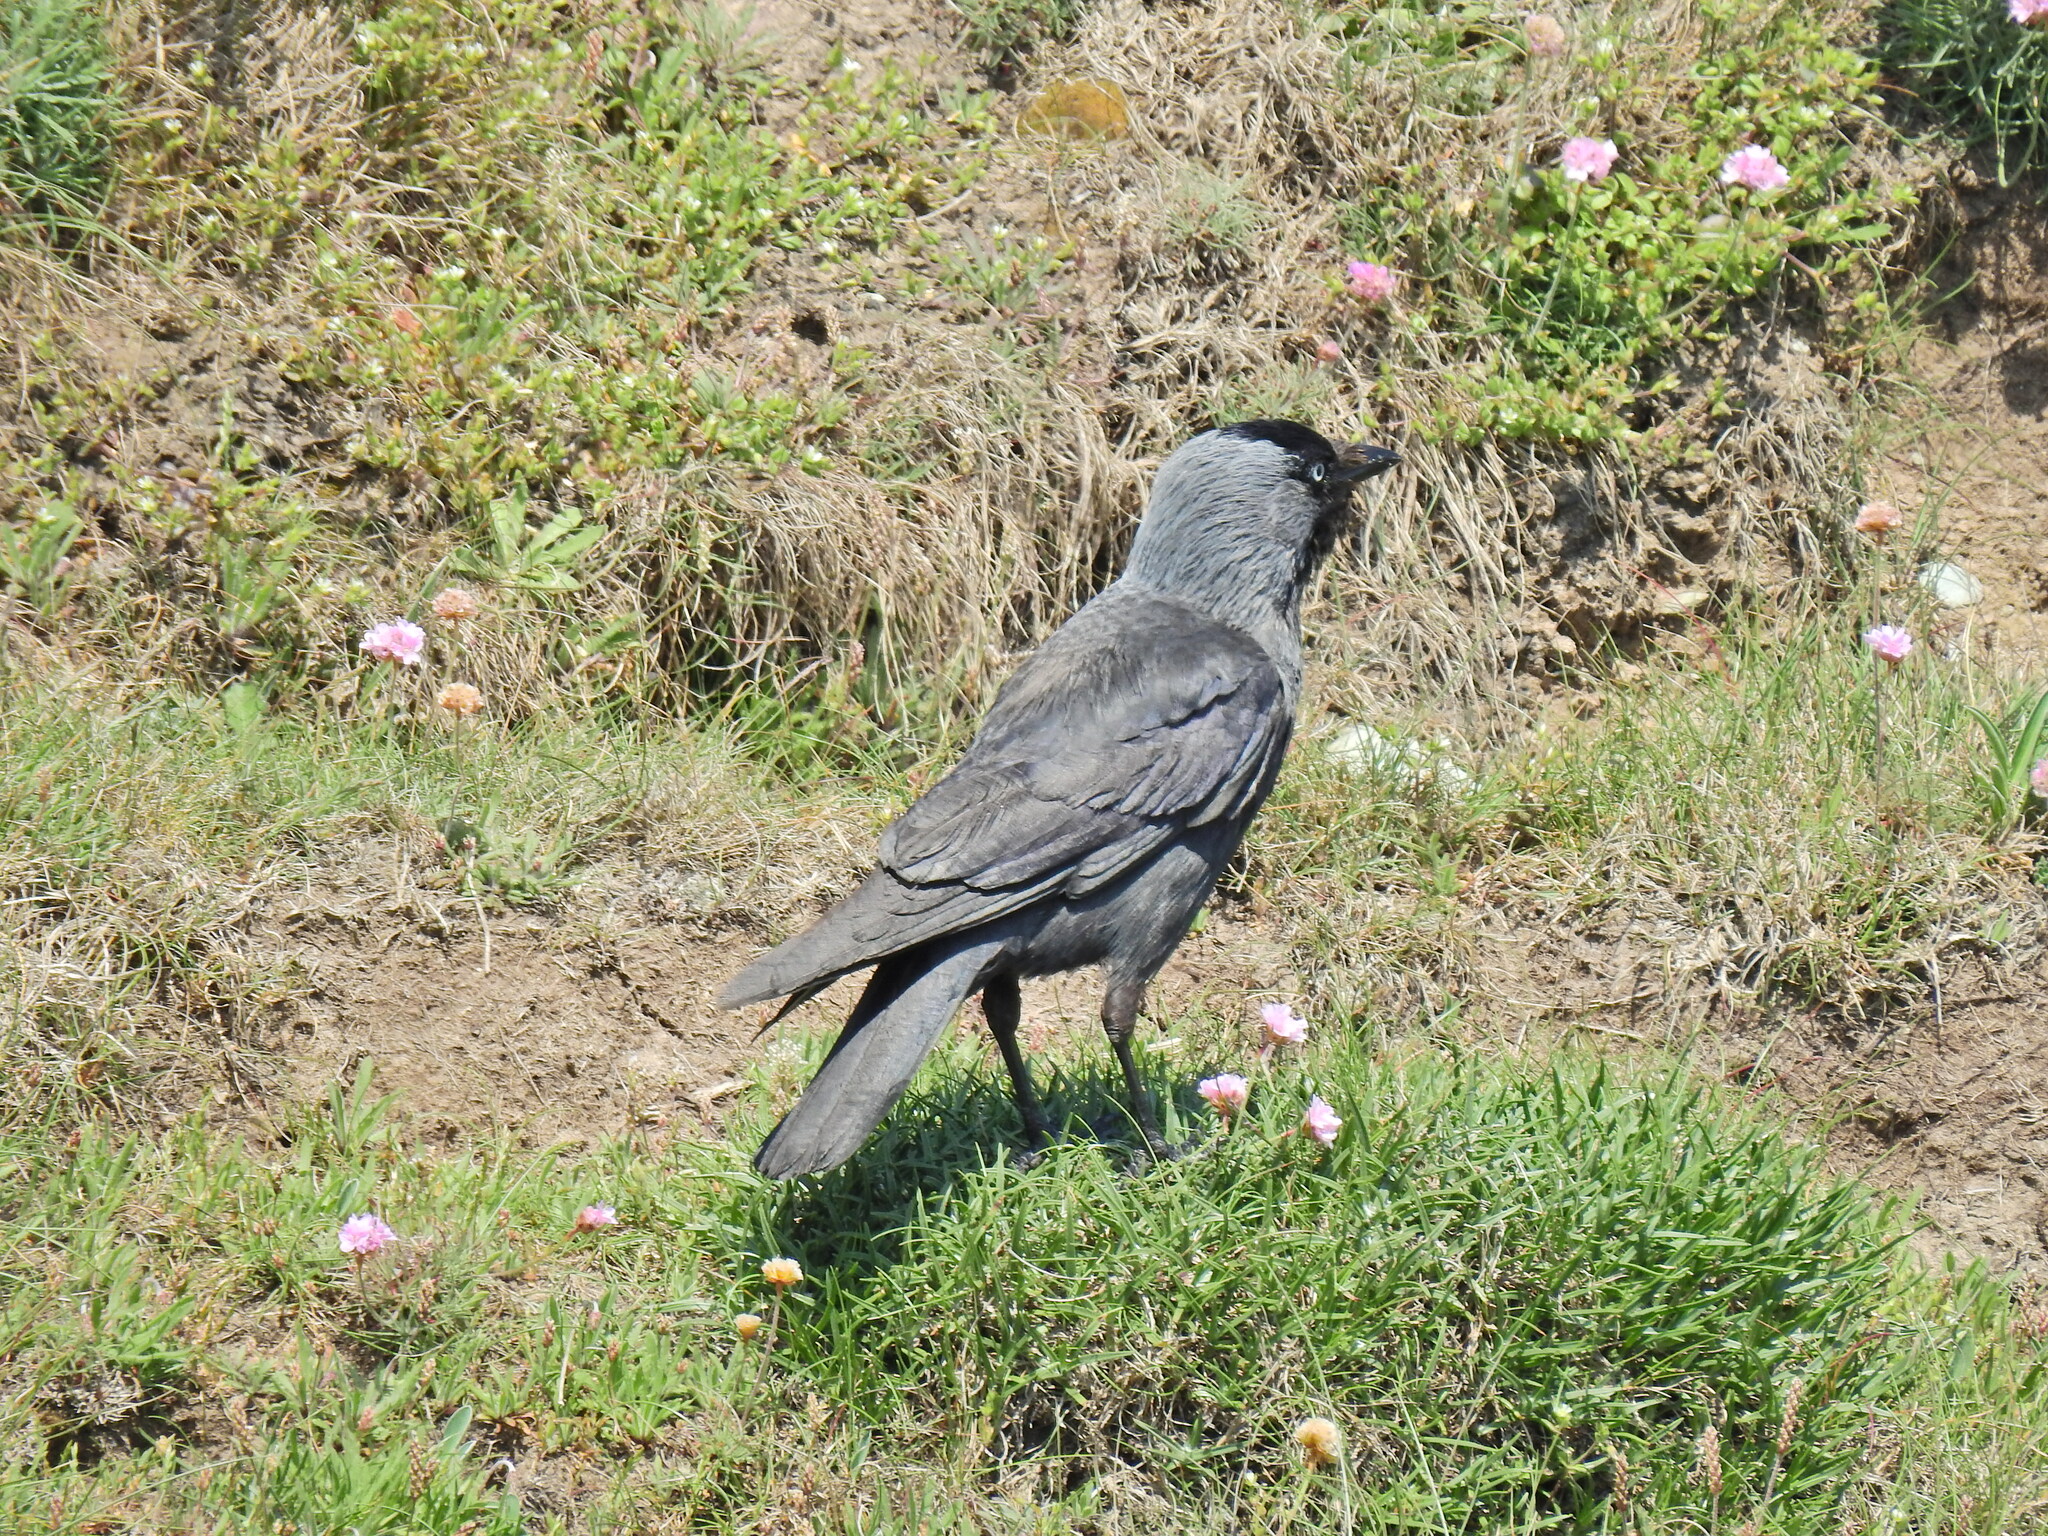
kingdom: Animalia
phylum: Chordata
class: Aves
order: Passeriformes
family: Corvidae
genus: Coloeus
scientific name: Coloeus monedula
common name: Western jackdaw
